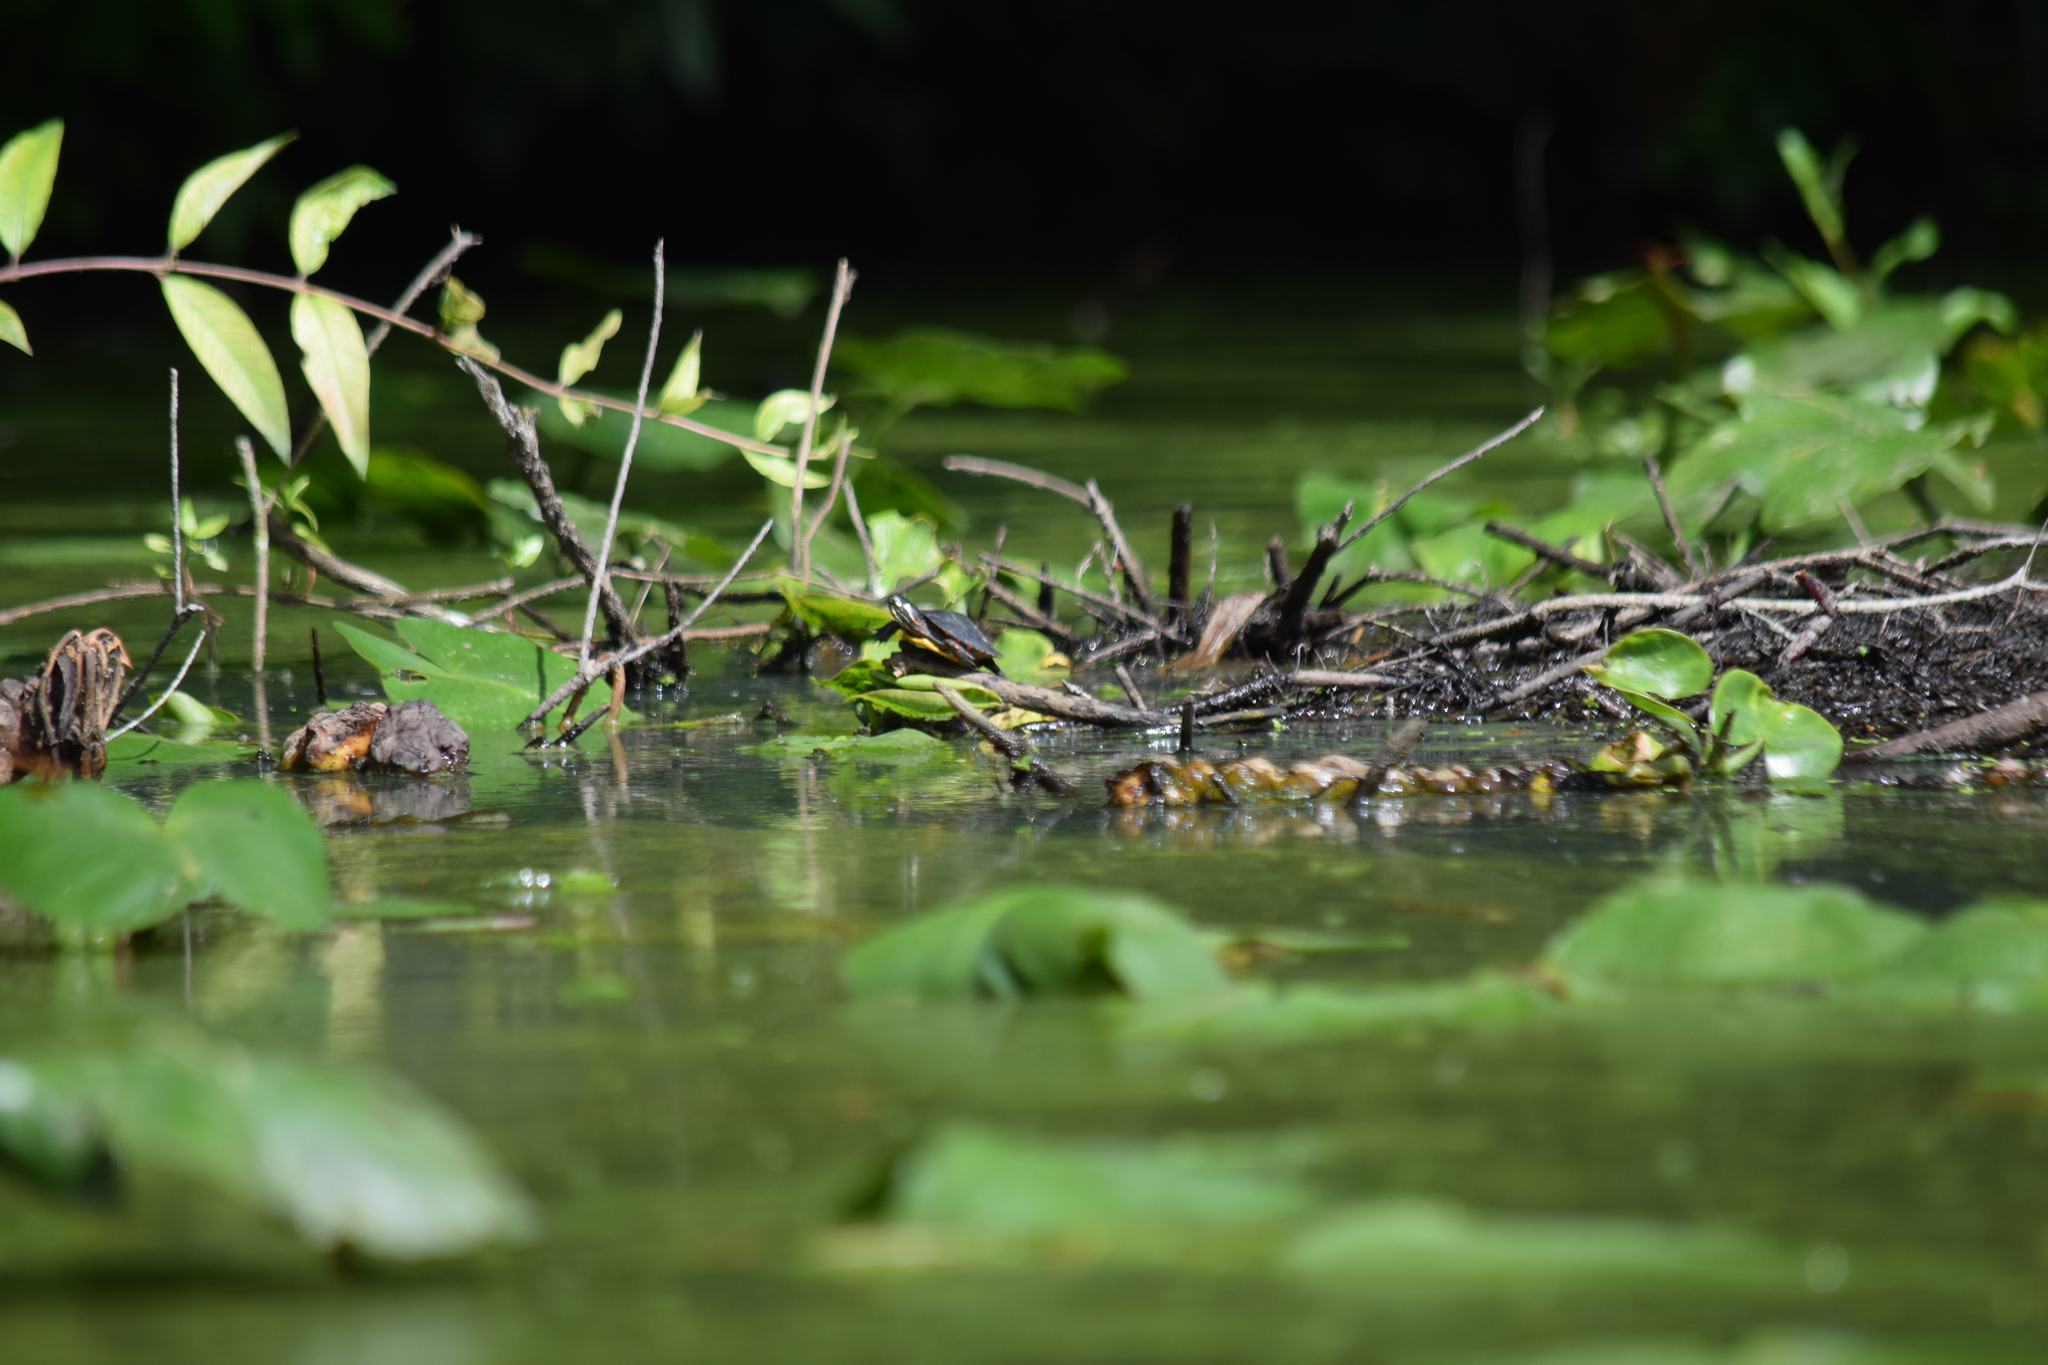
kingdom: Animalia
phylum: Chordata
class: Testudines
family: Emydidae
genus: Chrysemys
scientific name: Chrysemys picta
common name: Painted turtle
